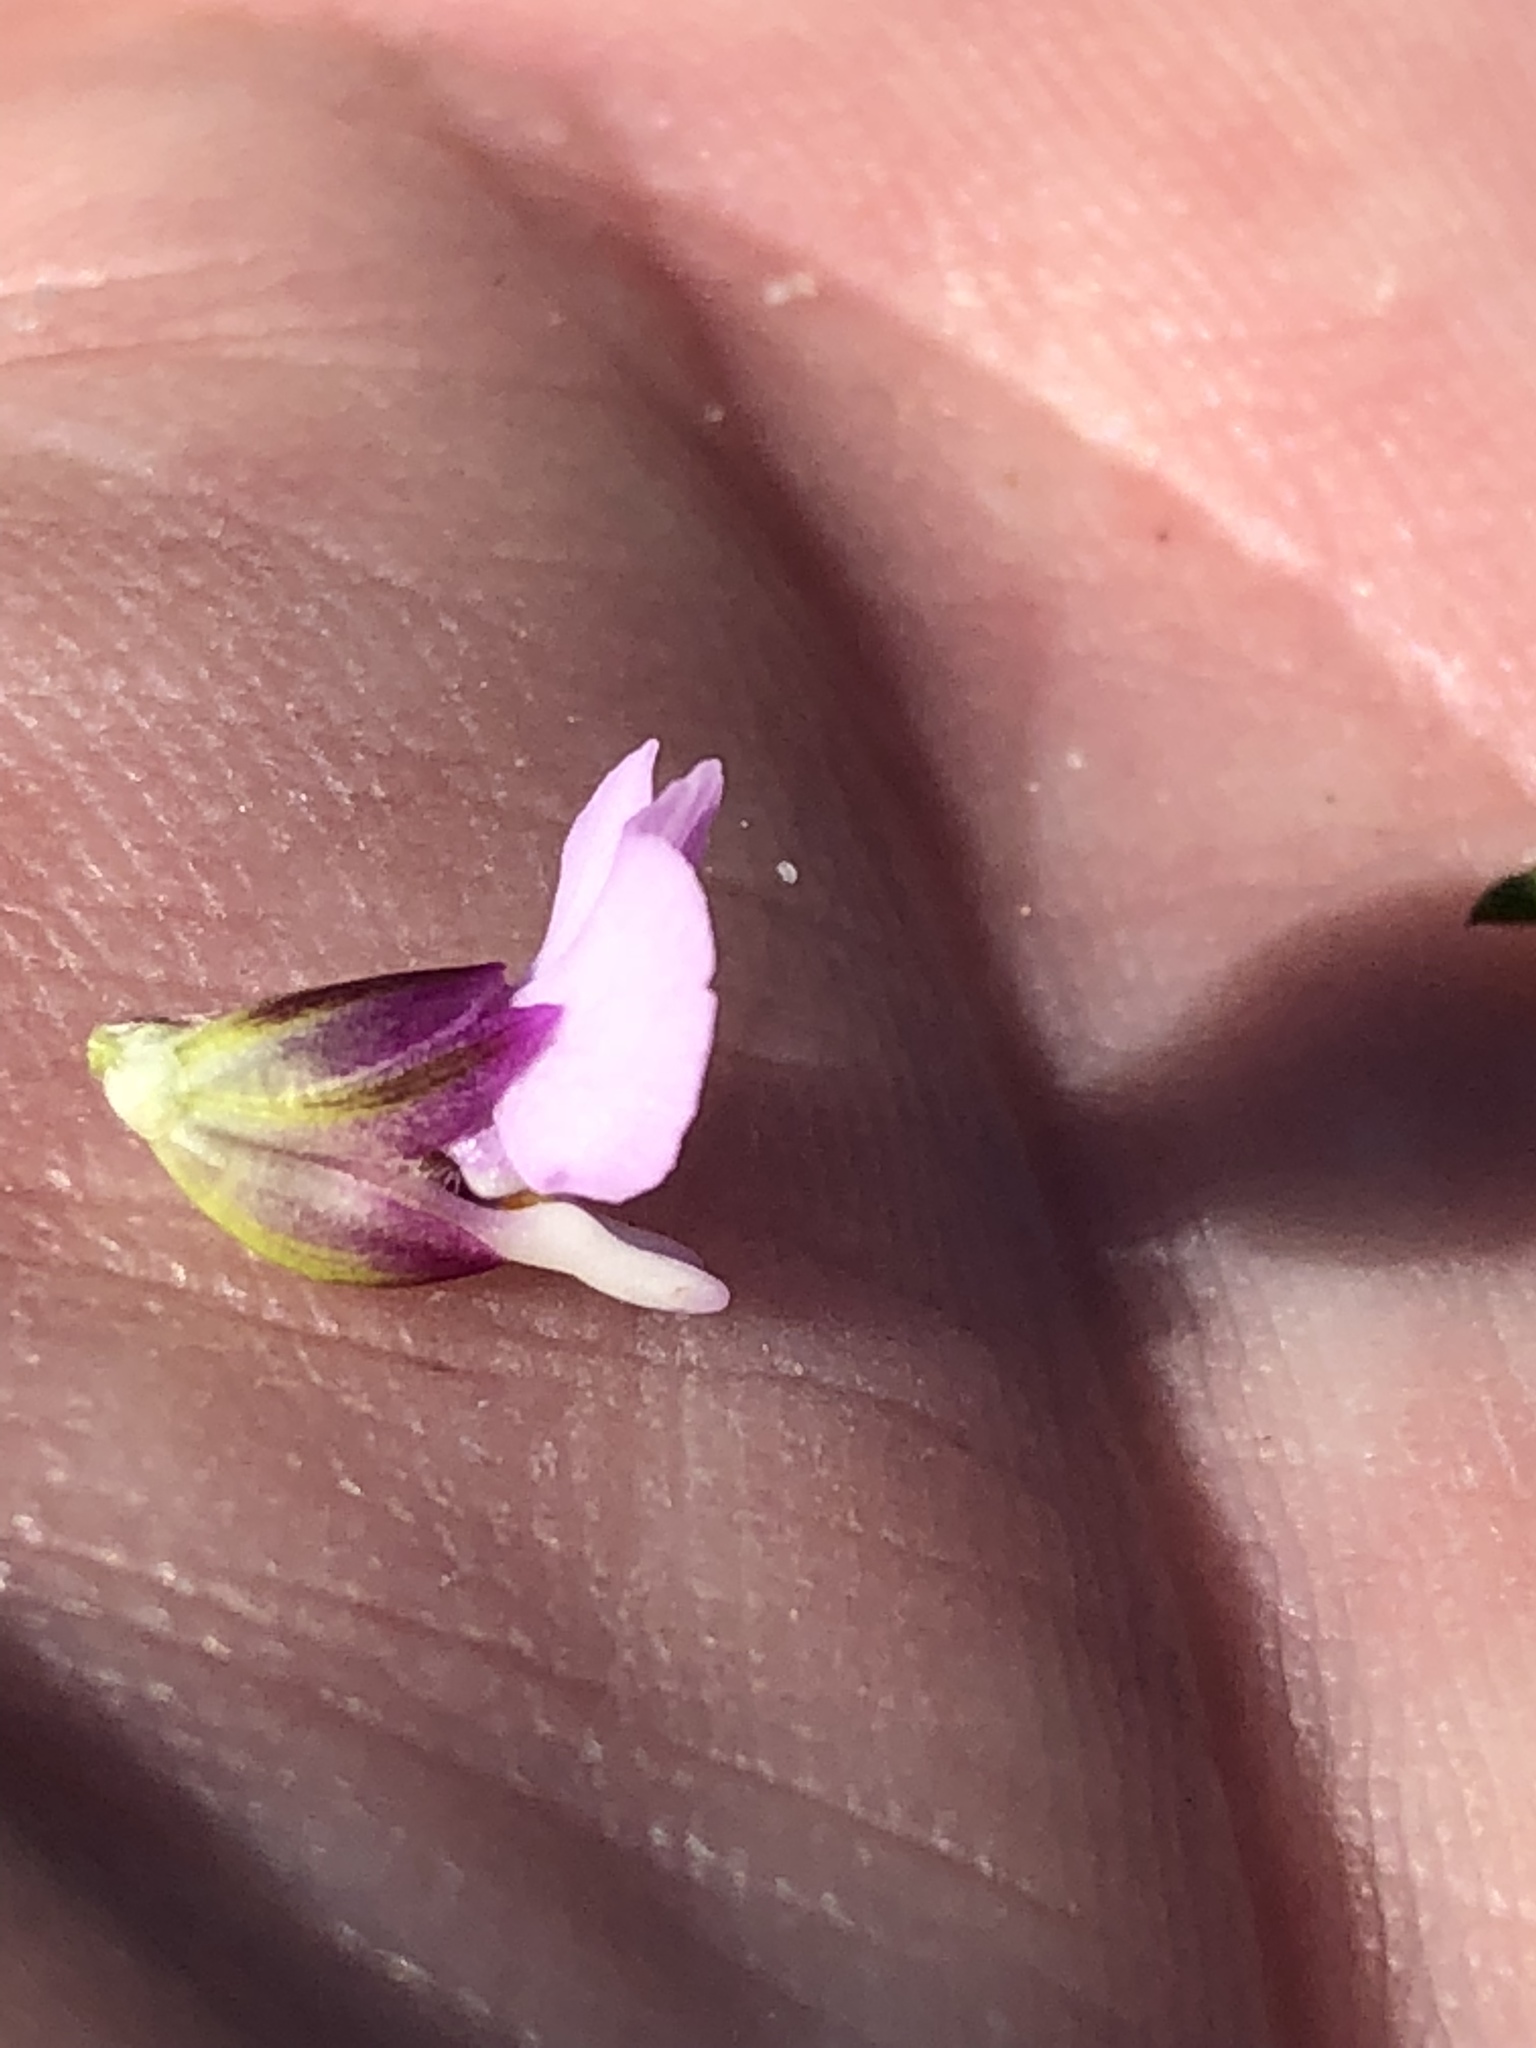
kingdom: Plantae
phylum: Tracheophyta
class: Magnoliopsida
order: Fabales
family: Polygalaceae
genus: Muraltia
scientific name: Muraltia splendens
